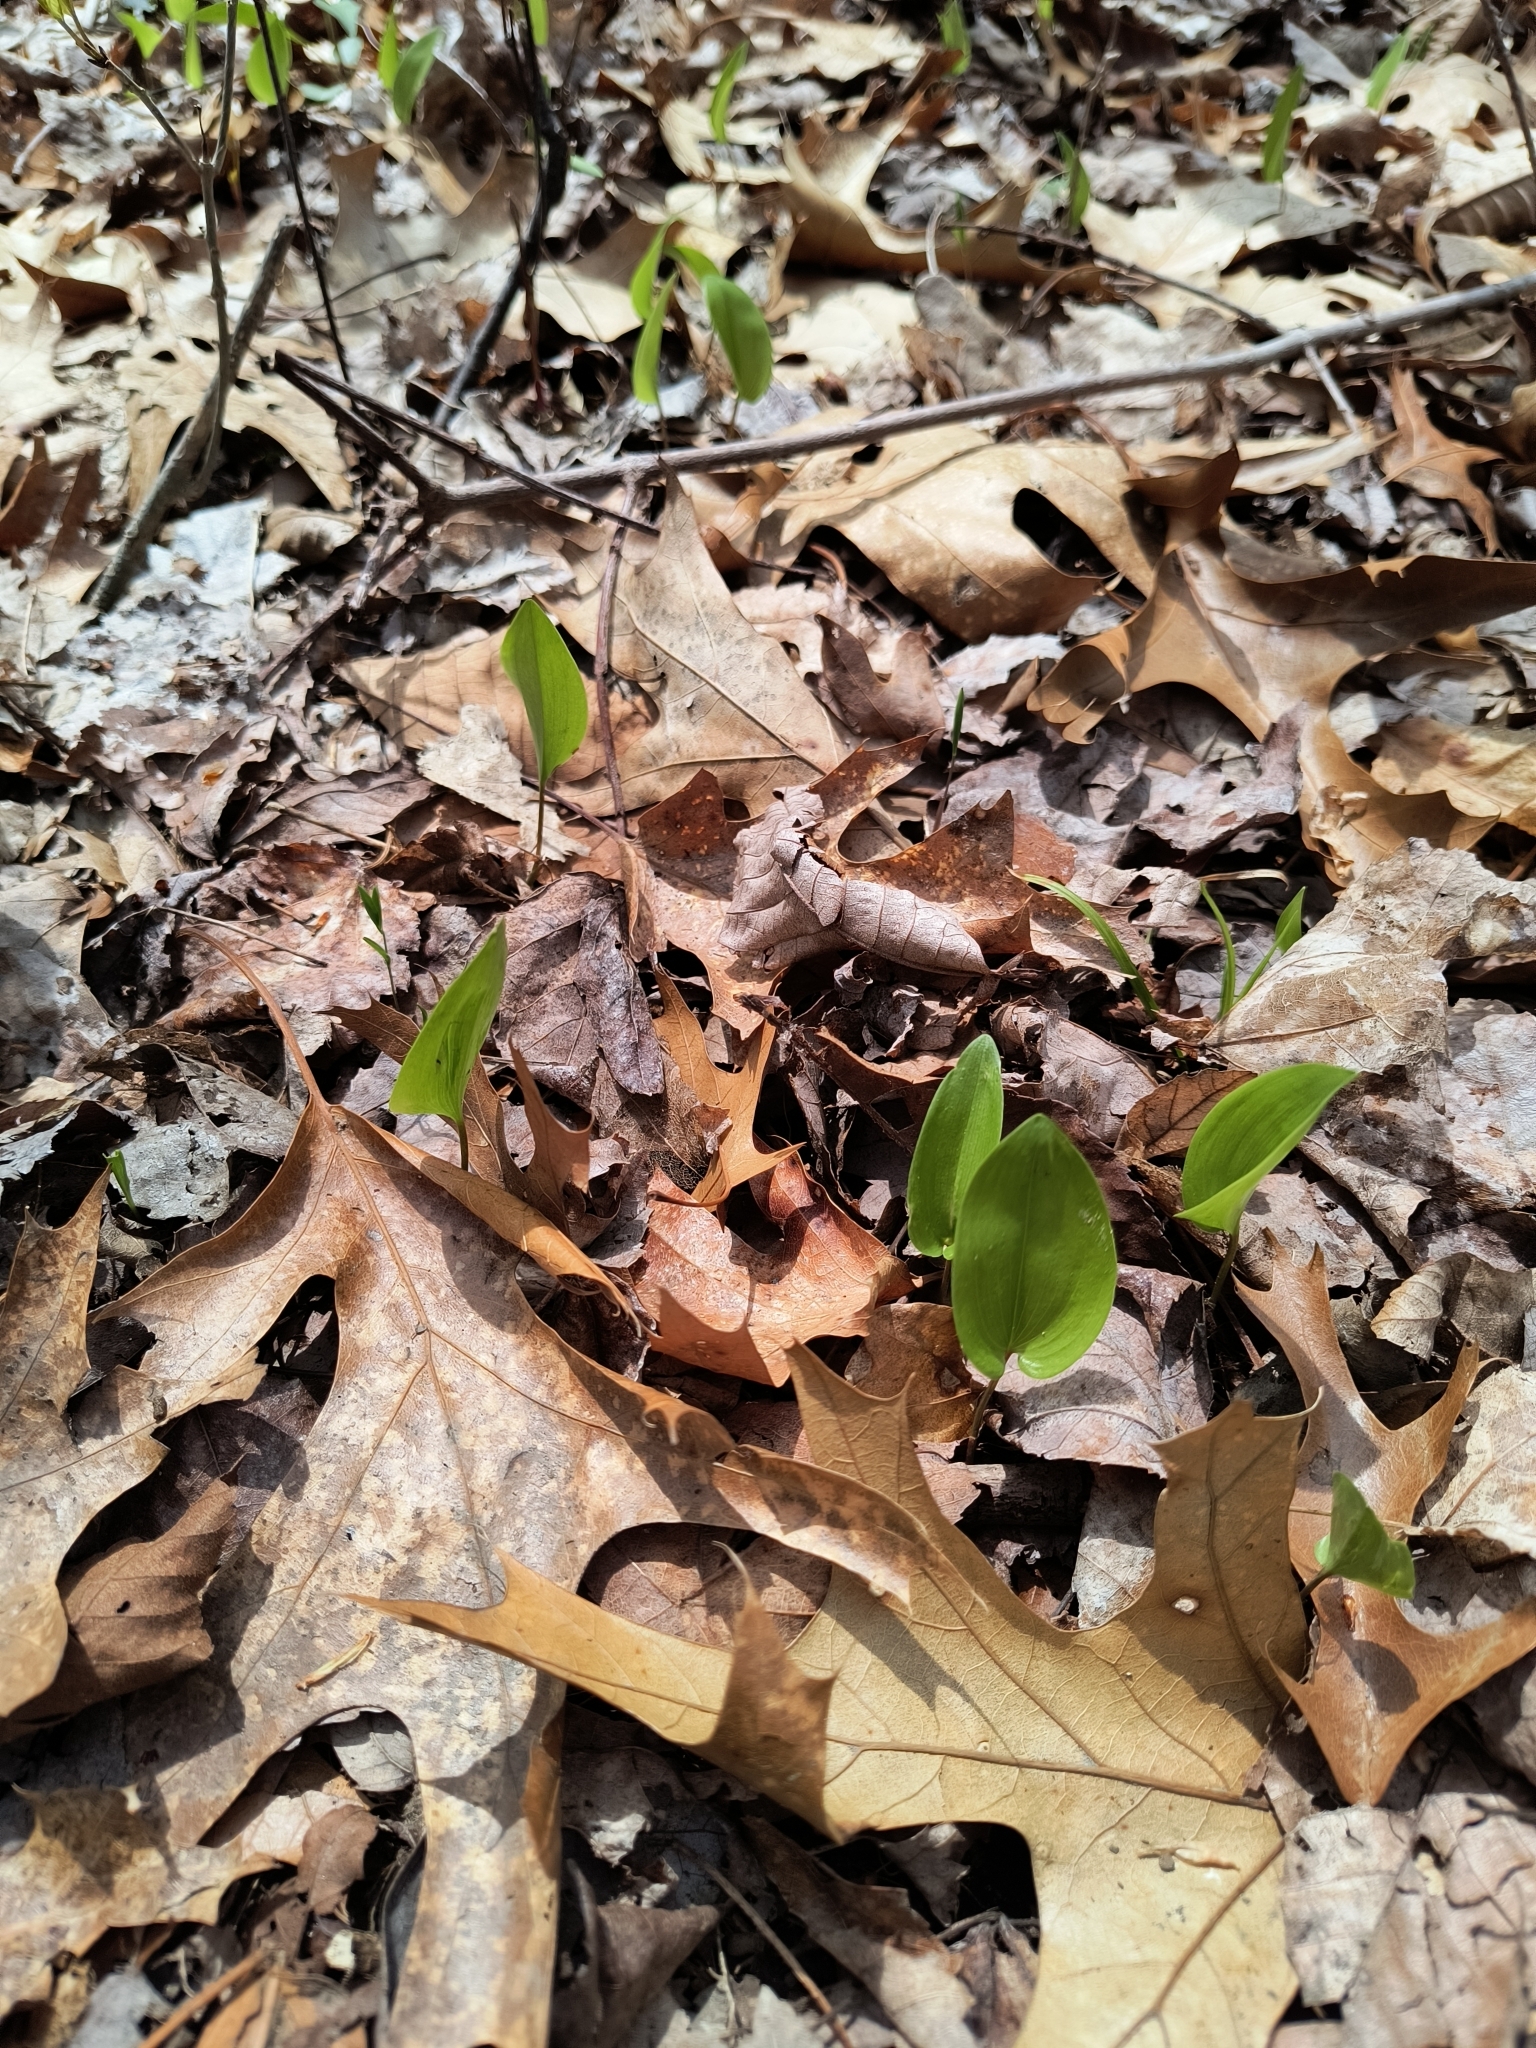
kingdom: Plantae
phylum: Tracheophyta
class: Liliopsida
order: Asparagales
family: Asparagaceae
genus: Maianthemum
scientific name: Maianthemum canadense
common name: False lily-of-the-valley
